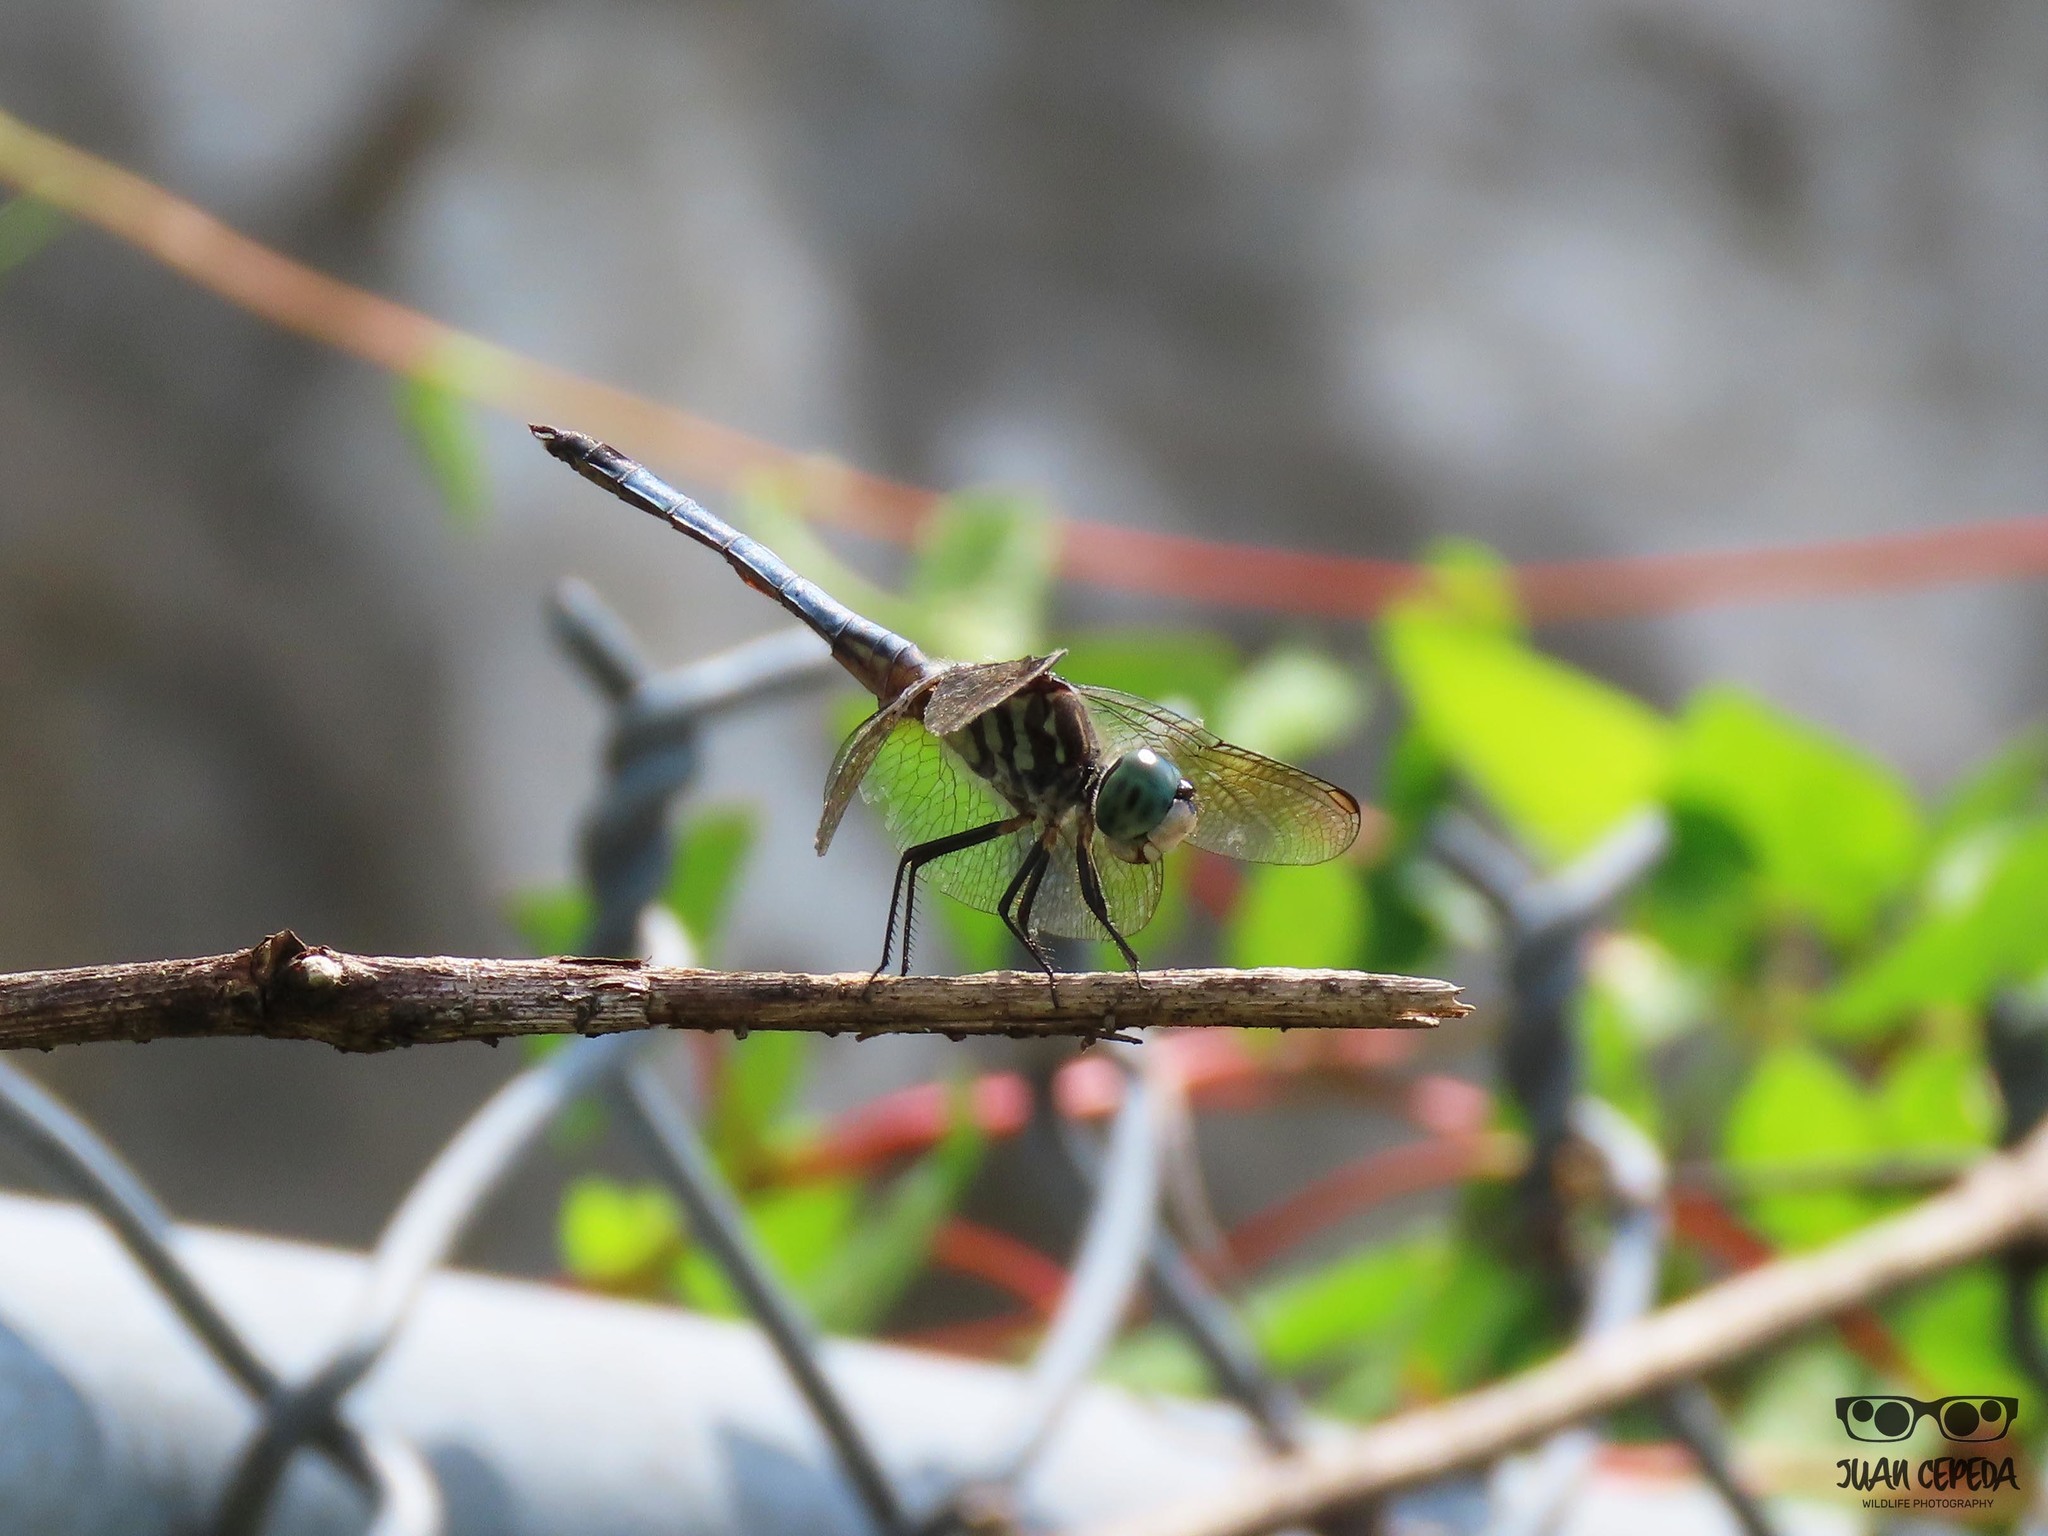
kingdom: Animalia
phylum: Arthropoda
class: Insecta
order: Odonata
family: Libellulidae
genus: Pachydiplax
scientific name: Pachydiplax longipennis
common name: Blue dasher
